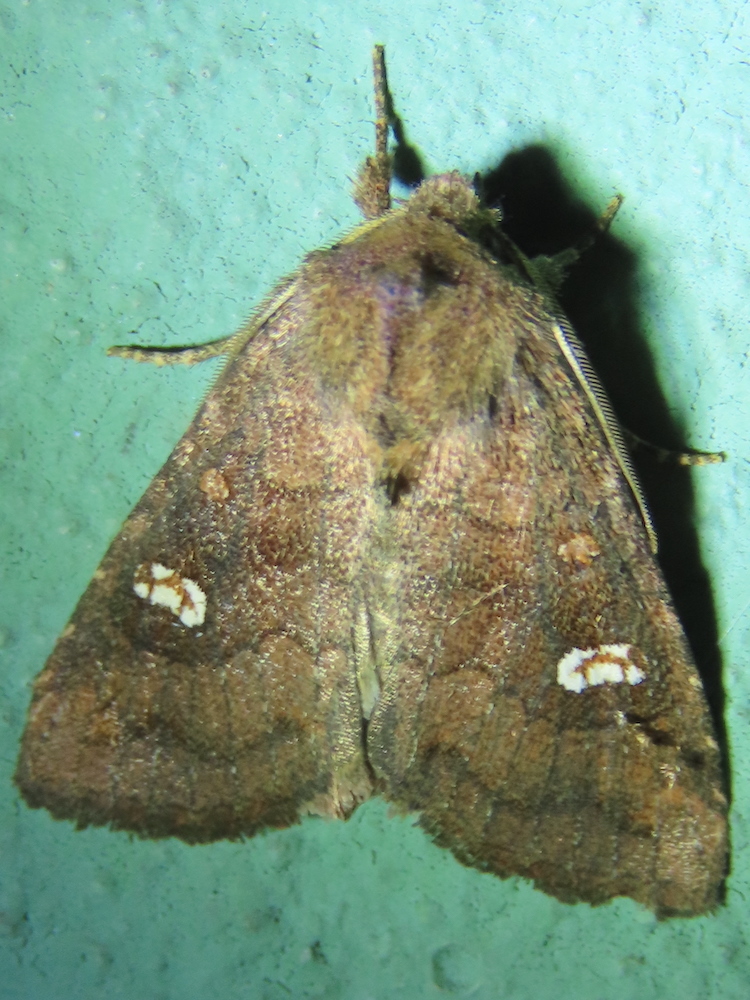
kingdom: Animalia
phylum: Arthropoda
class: Insecta
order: Lepidoptera
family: Noctuidae
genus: Tricholita
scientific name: Tricholita signata
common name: Signate quaker
